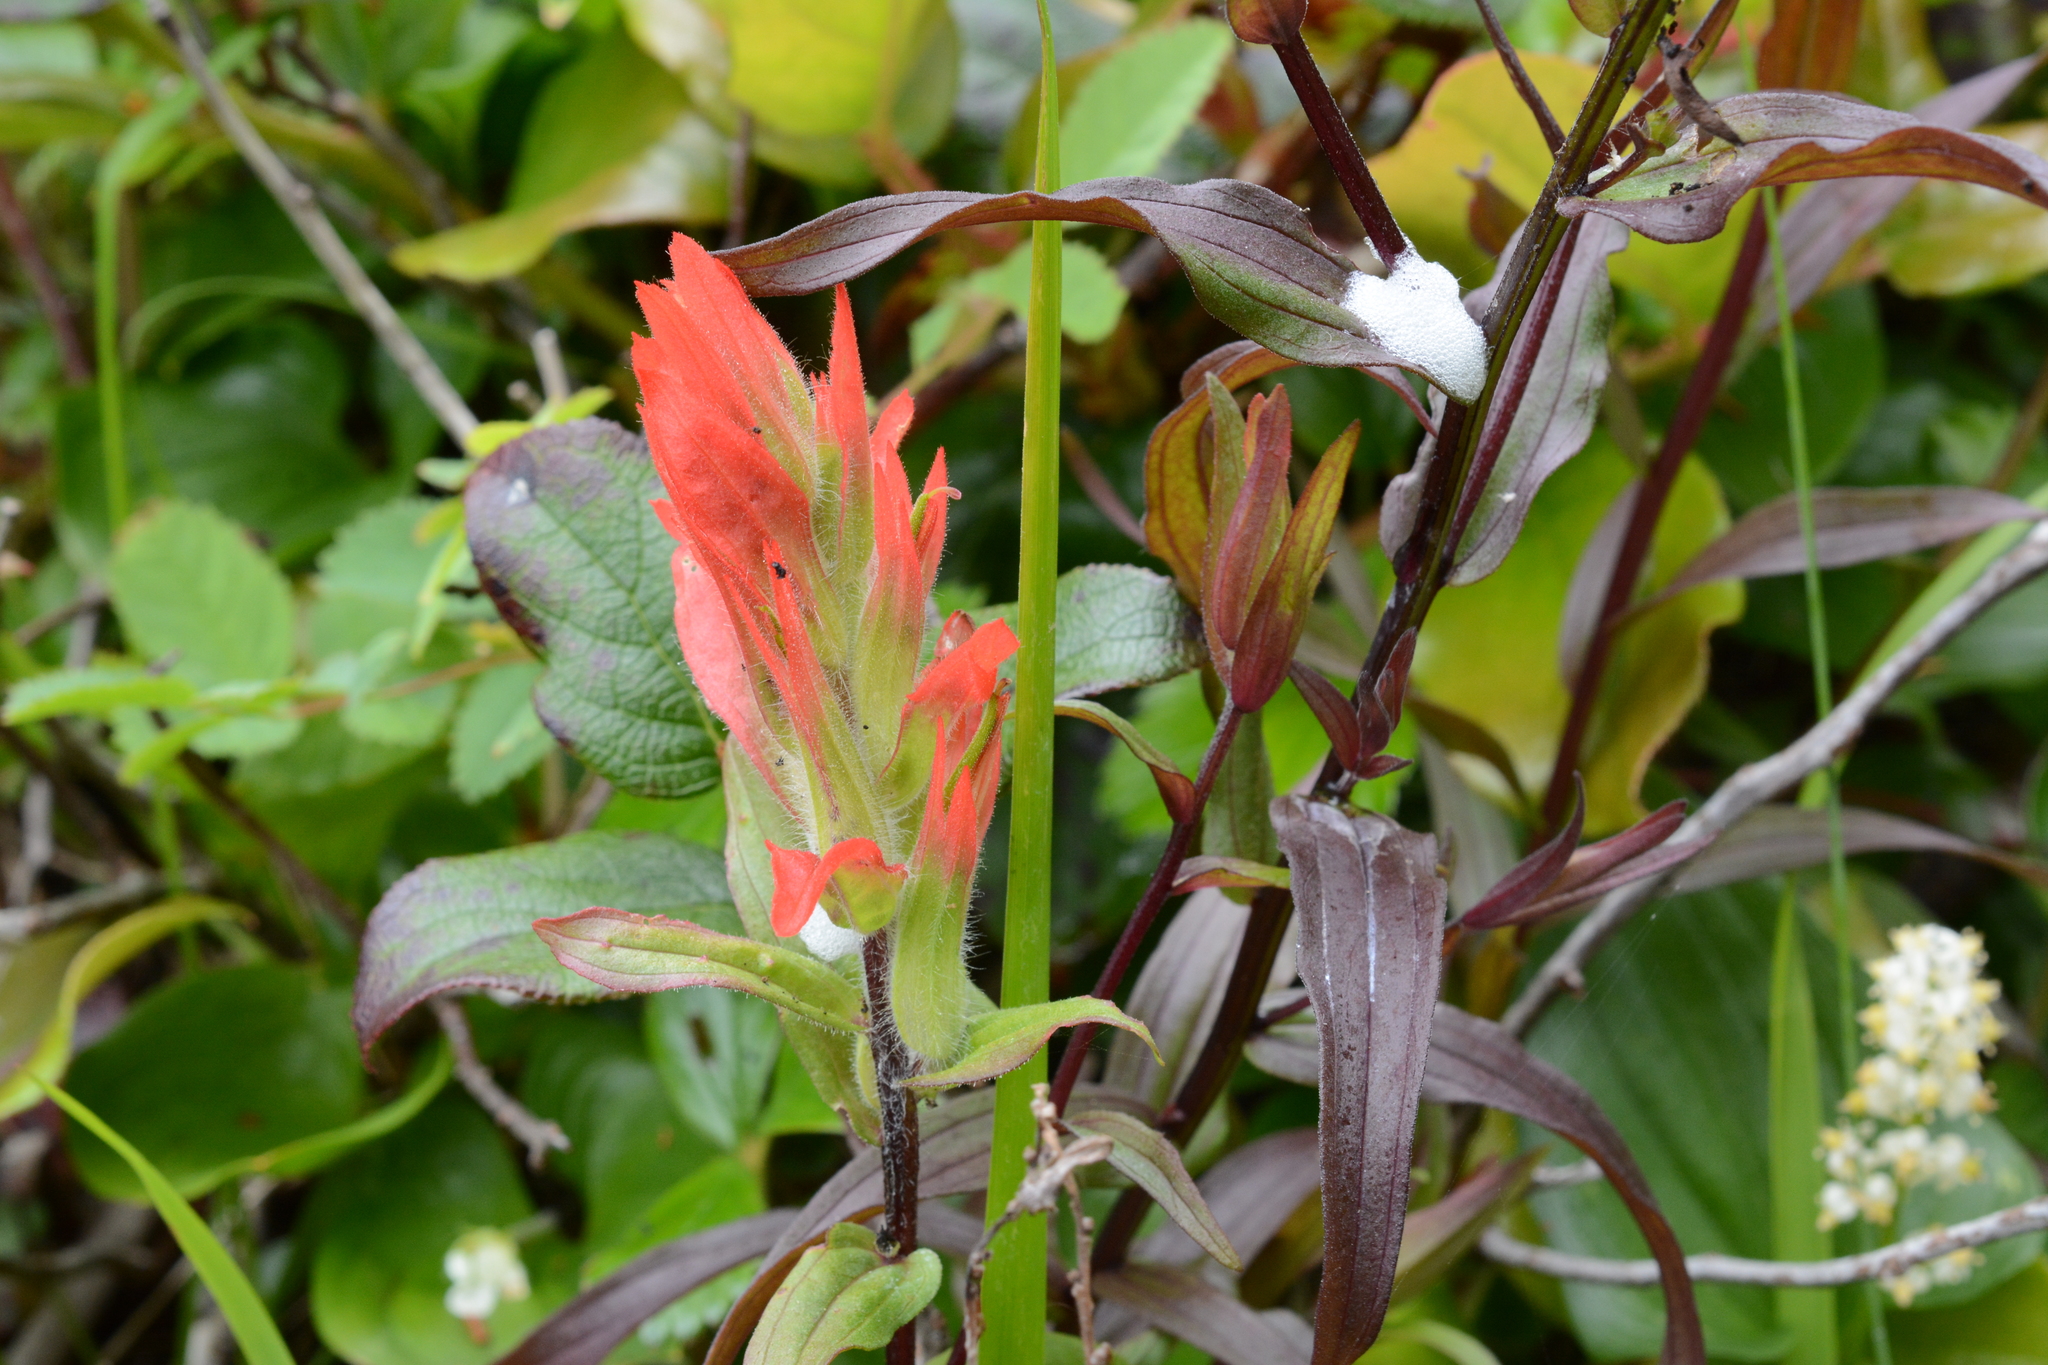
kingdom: Plantae
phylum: Tracheophyta
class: Magnoliopsida
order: Lamiales
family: Orobanchaceae
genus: Castilleja
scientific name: Castilleja miniata
